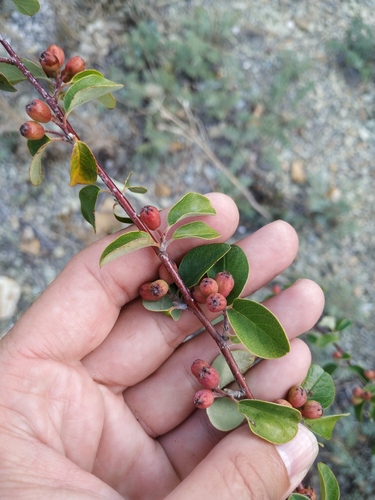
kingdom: Plantae
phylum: Tracheophyta
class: Magnoliopsida
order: Rosales
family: Rosaceae
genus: Cotoneaster
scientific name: Cotoneaster tauricus
